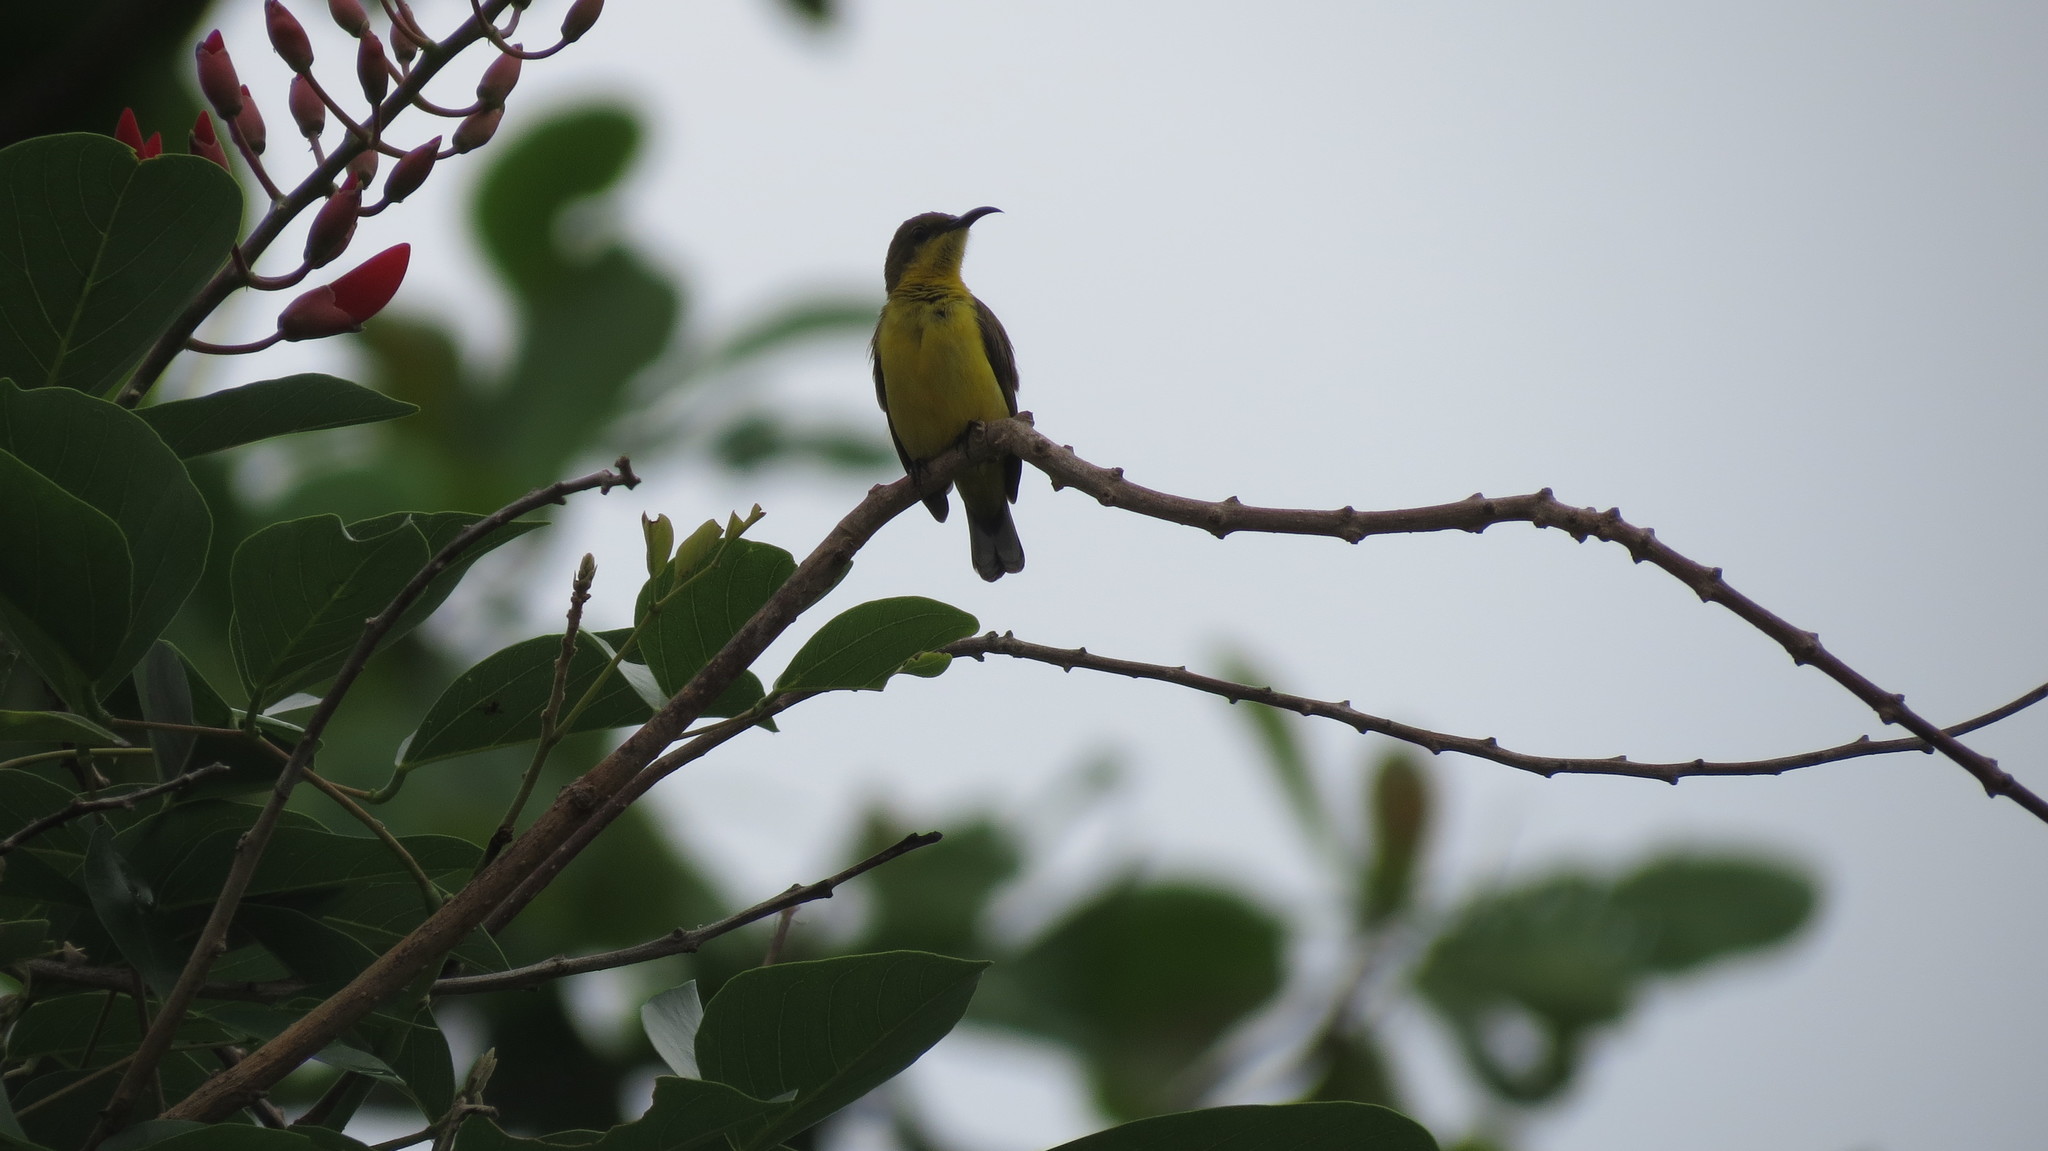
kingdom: Animalia
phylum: Chordata
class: Aves
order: Passeriformes
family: Nectariniidae
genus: Cinnyris
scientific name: Cinnyris
